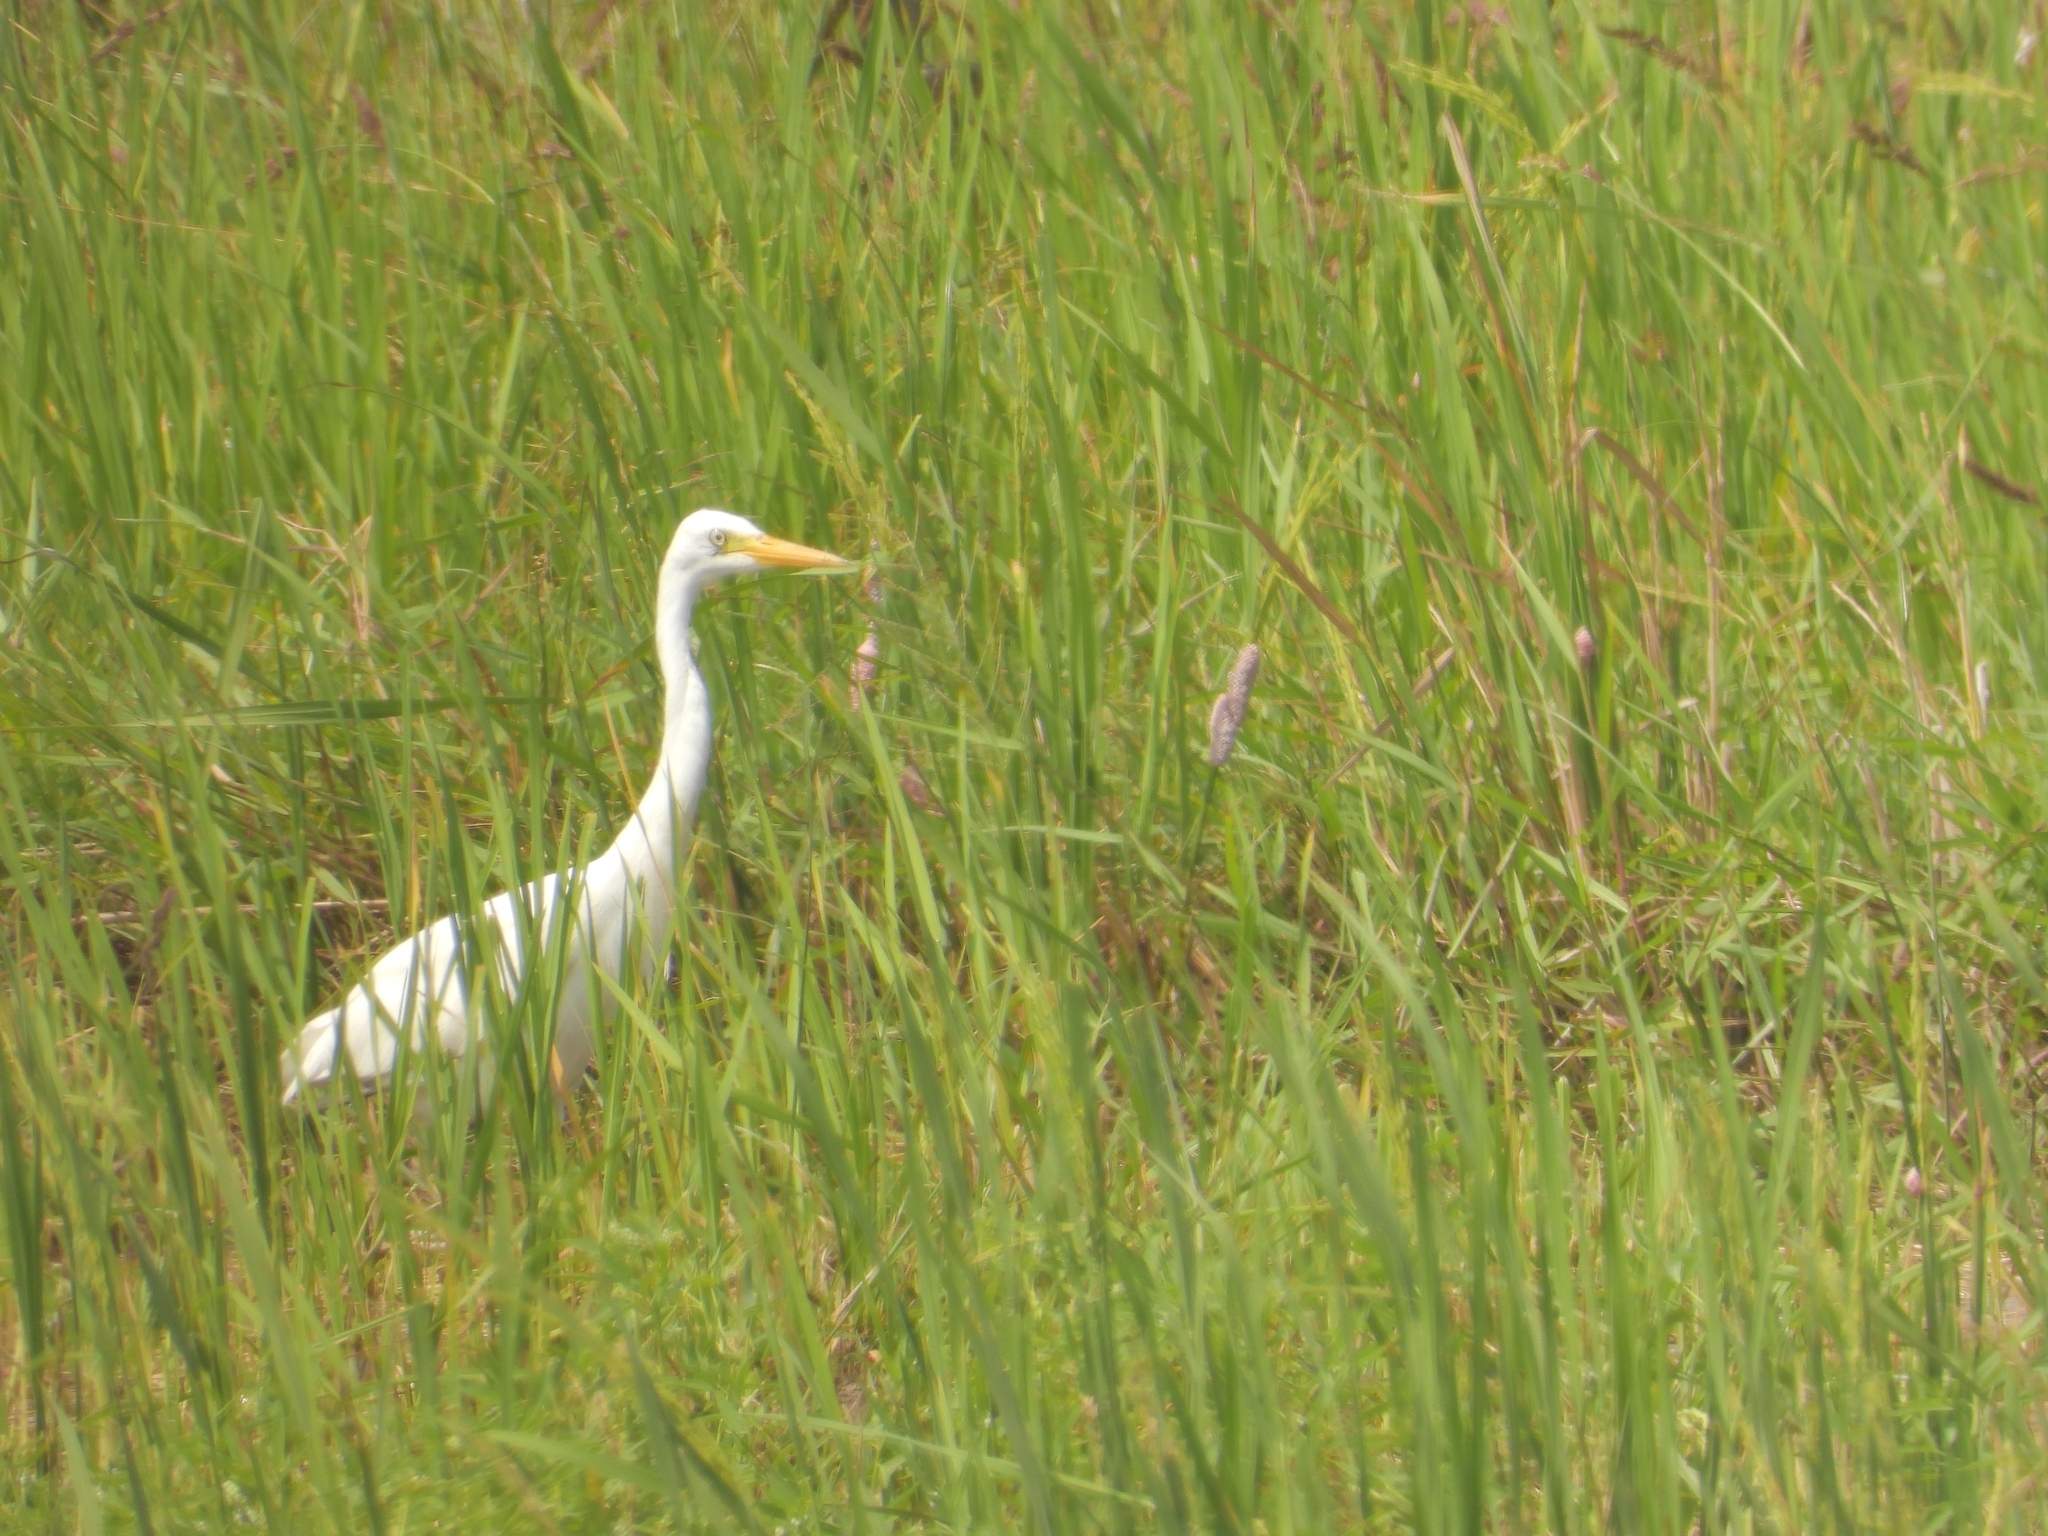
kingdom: Animalia
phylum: Chordata
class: Aves
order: Pelecaniformes
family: Ardeidae
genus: Egretta
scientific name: Egretta intermedia
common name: Intermediate egret
